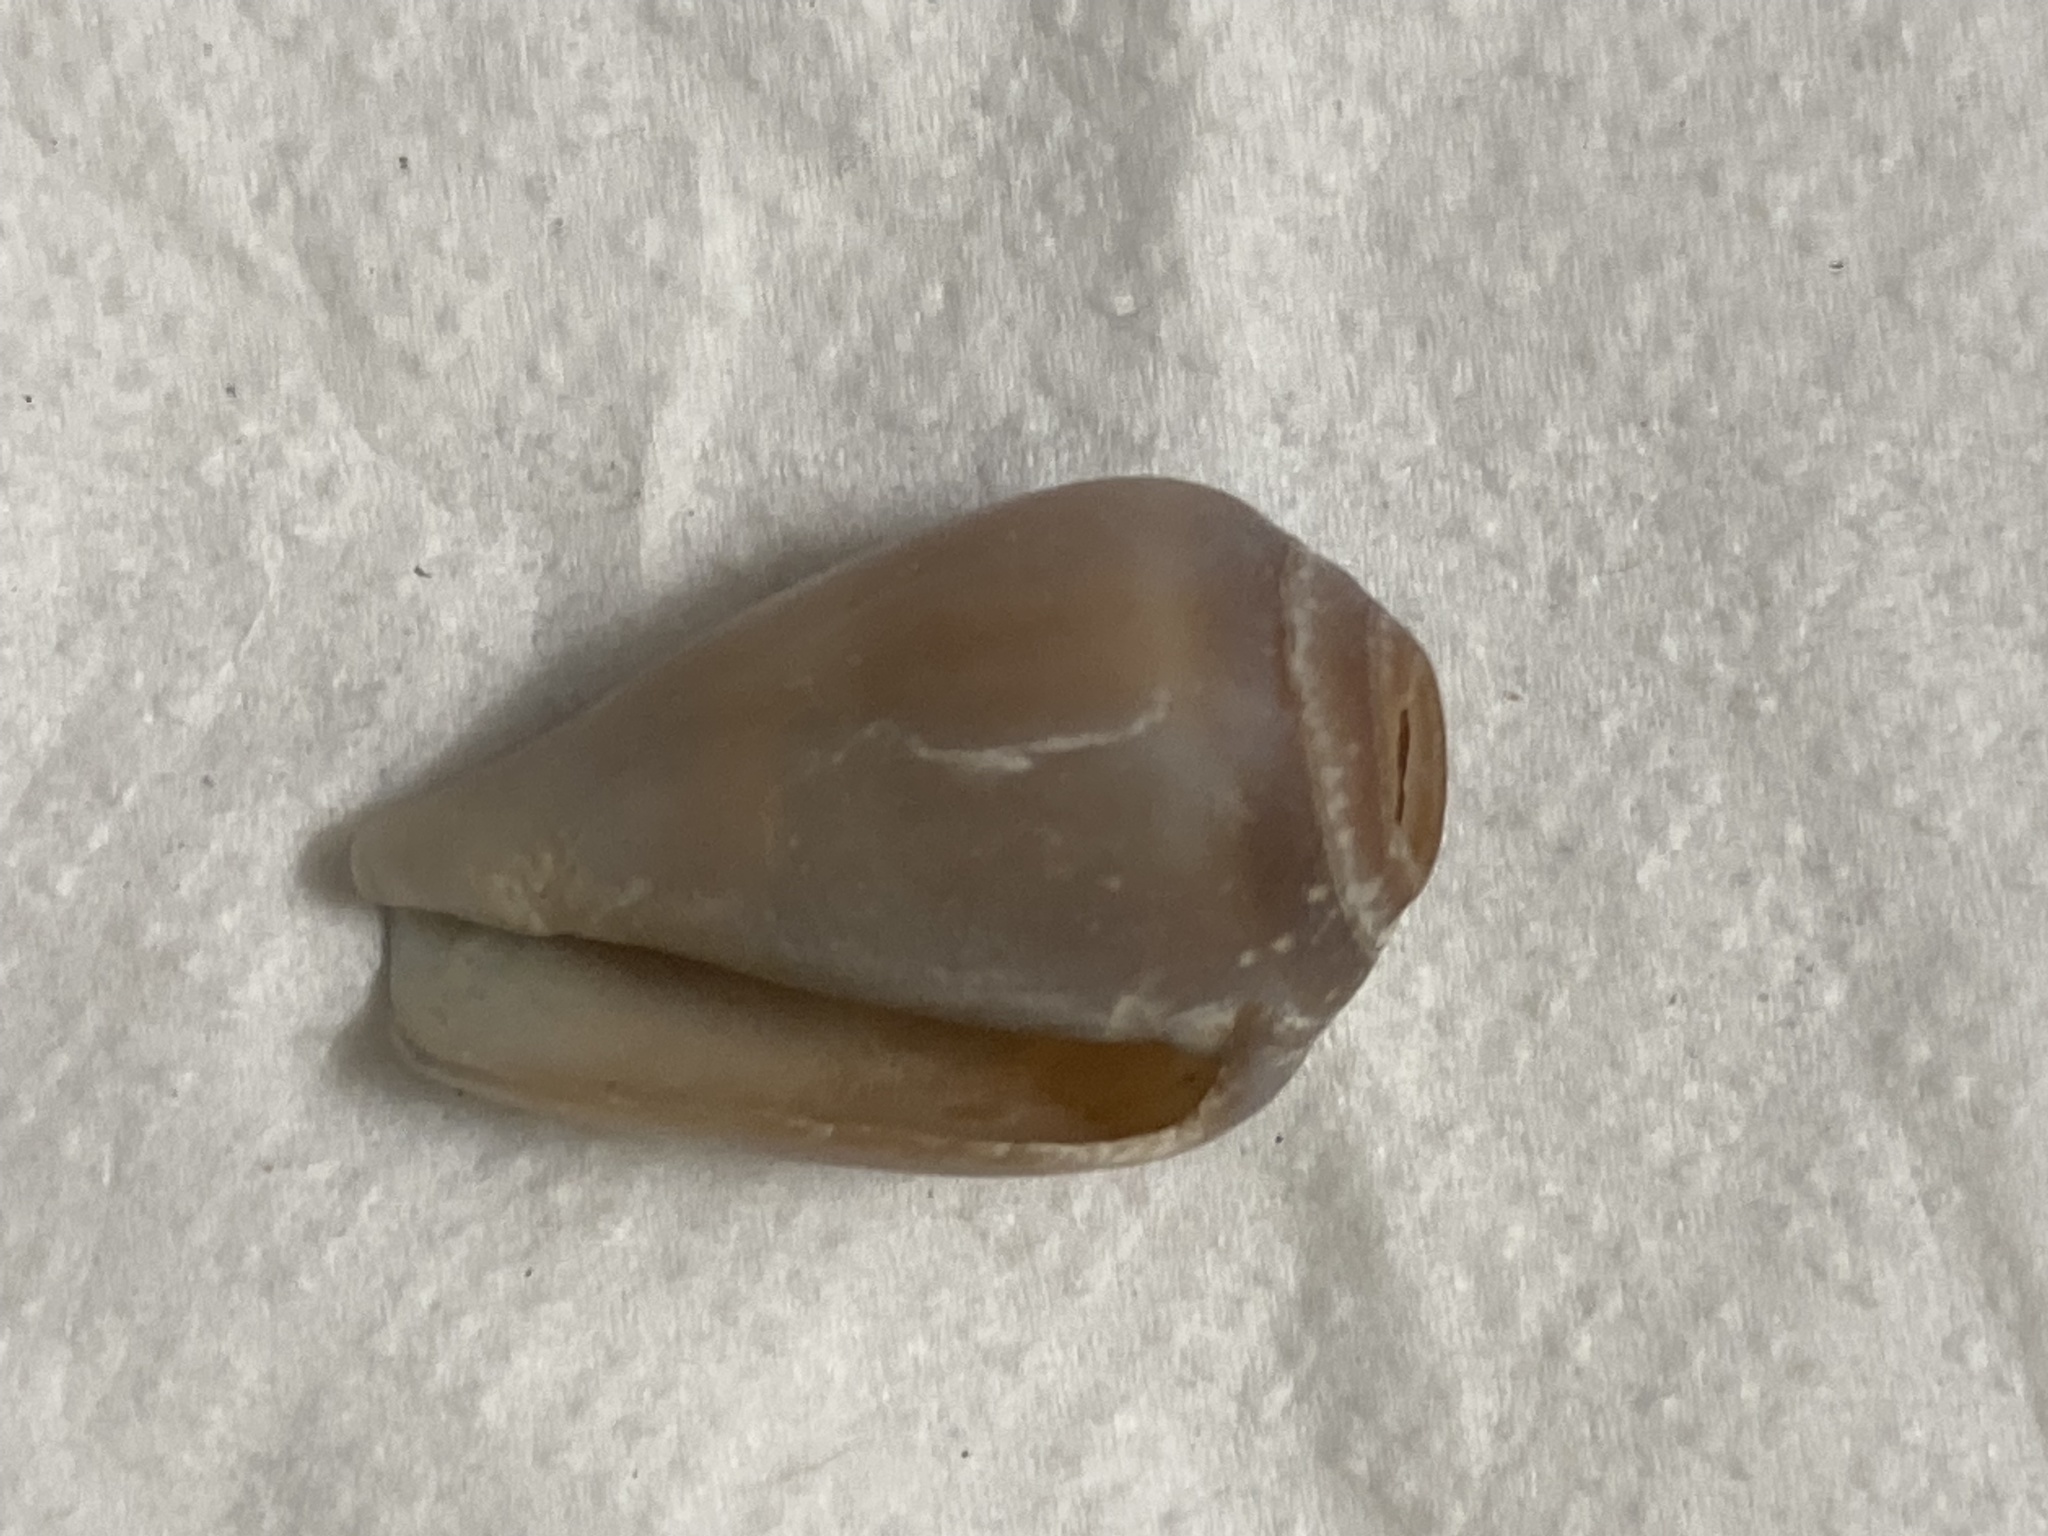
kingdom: Animalia
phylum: Mollusca
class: Gastropoda
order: Neogastropoda
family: Conidae
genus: Californiconus
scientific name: Californiconus californicus
